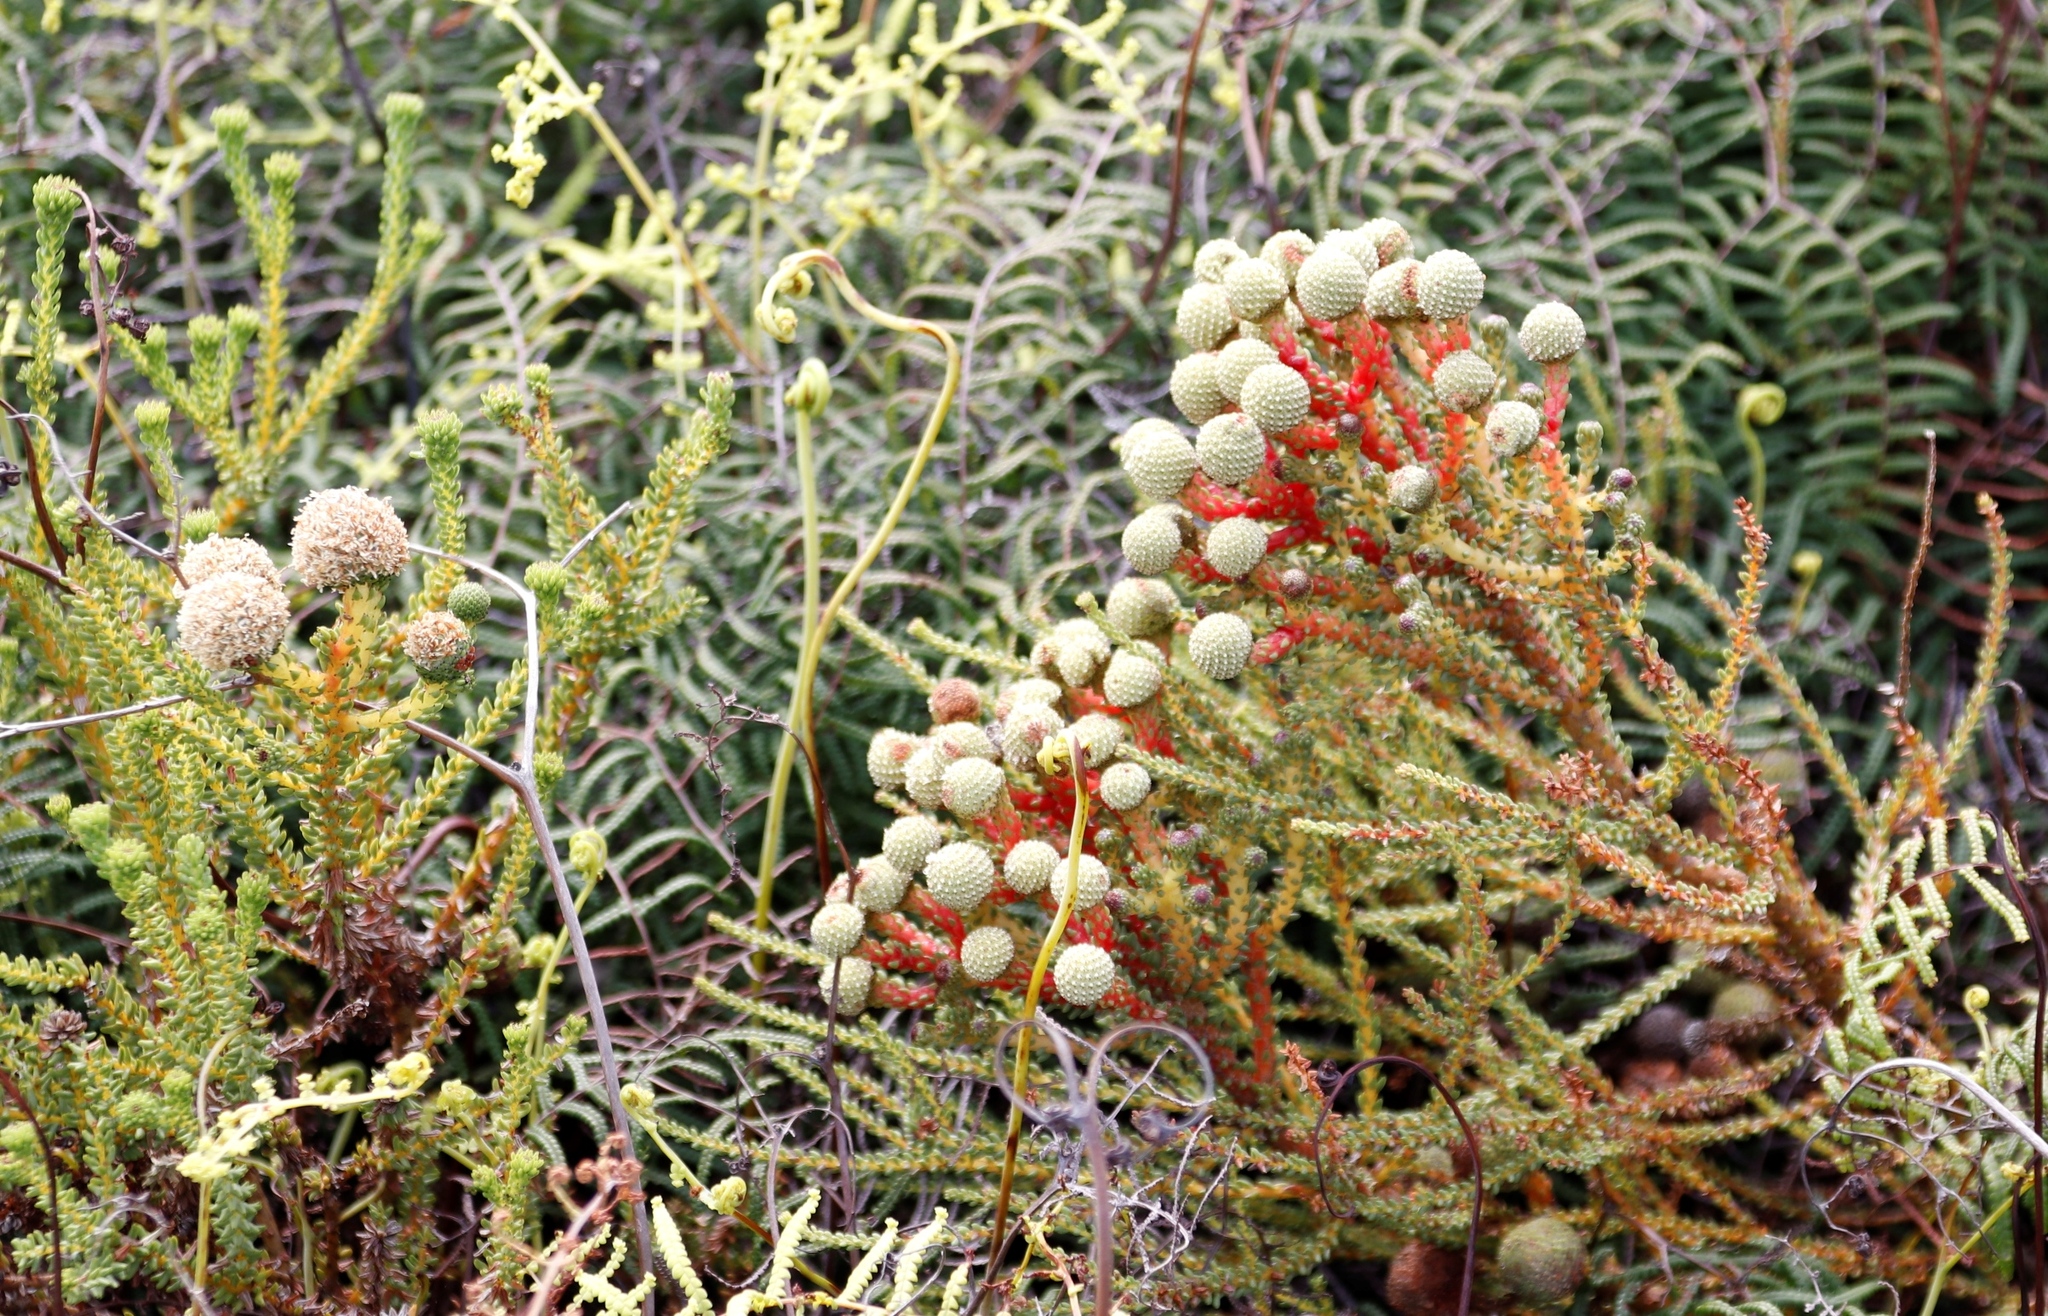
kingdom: Plantae
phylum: Tracheophyta
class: Magnoliopsida
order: Bruniales
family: Bruniaceae
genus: Berzelia
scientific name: Berzelia abrotanoides
